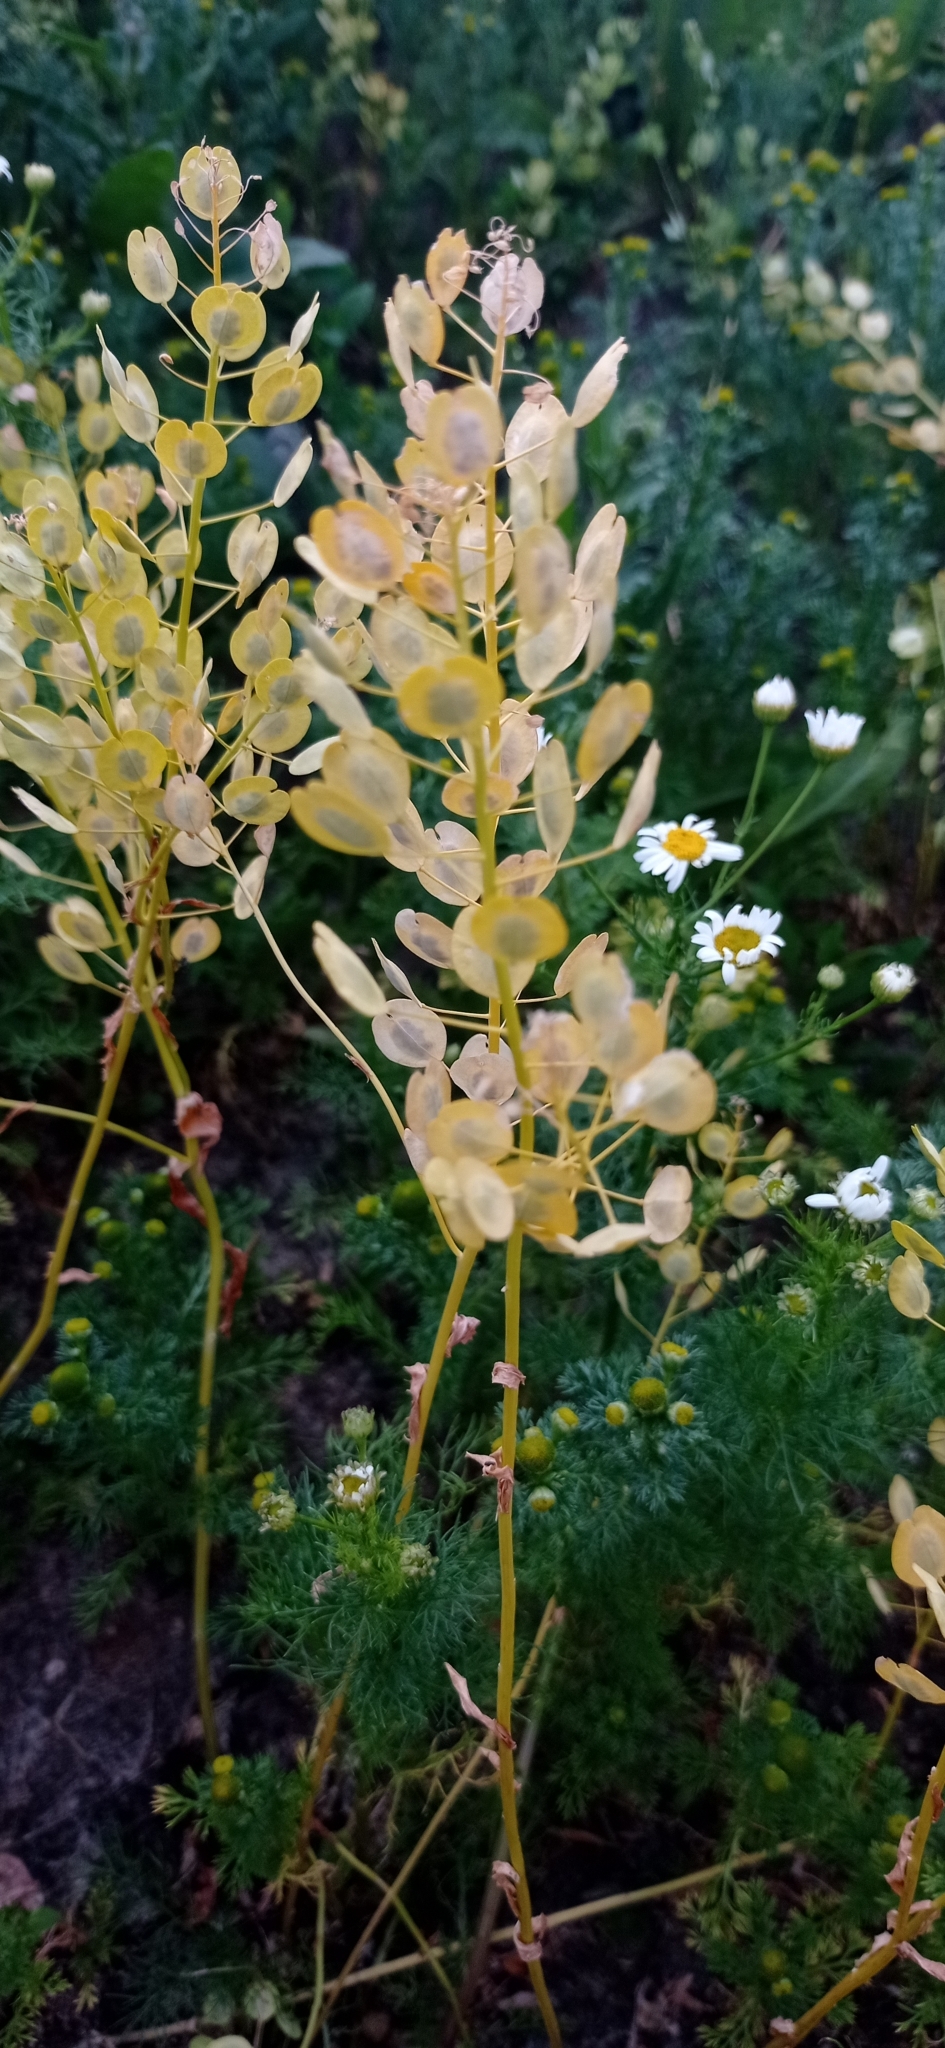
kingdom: Plantae
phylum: Tracheophyta
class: Magnoliopsida
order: Brassicales
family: Brassicaceae
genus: Thlaspi
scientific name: Thlaspi arvense
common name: Field pennycress
